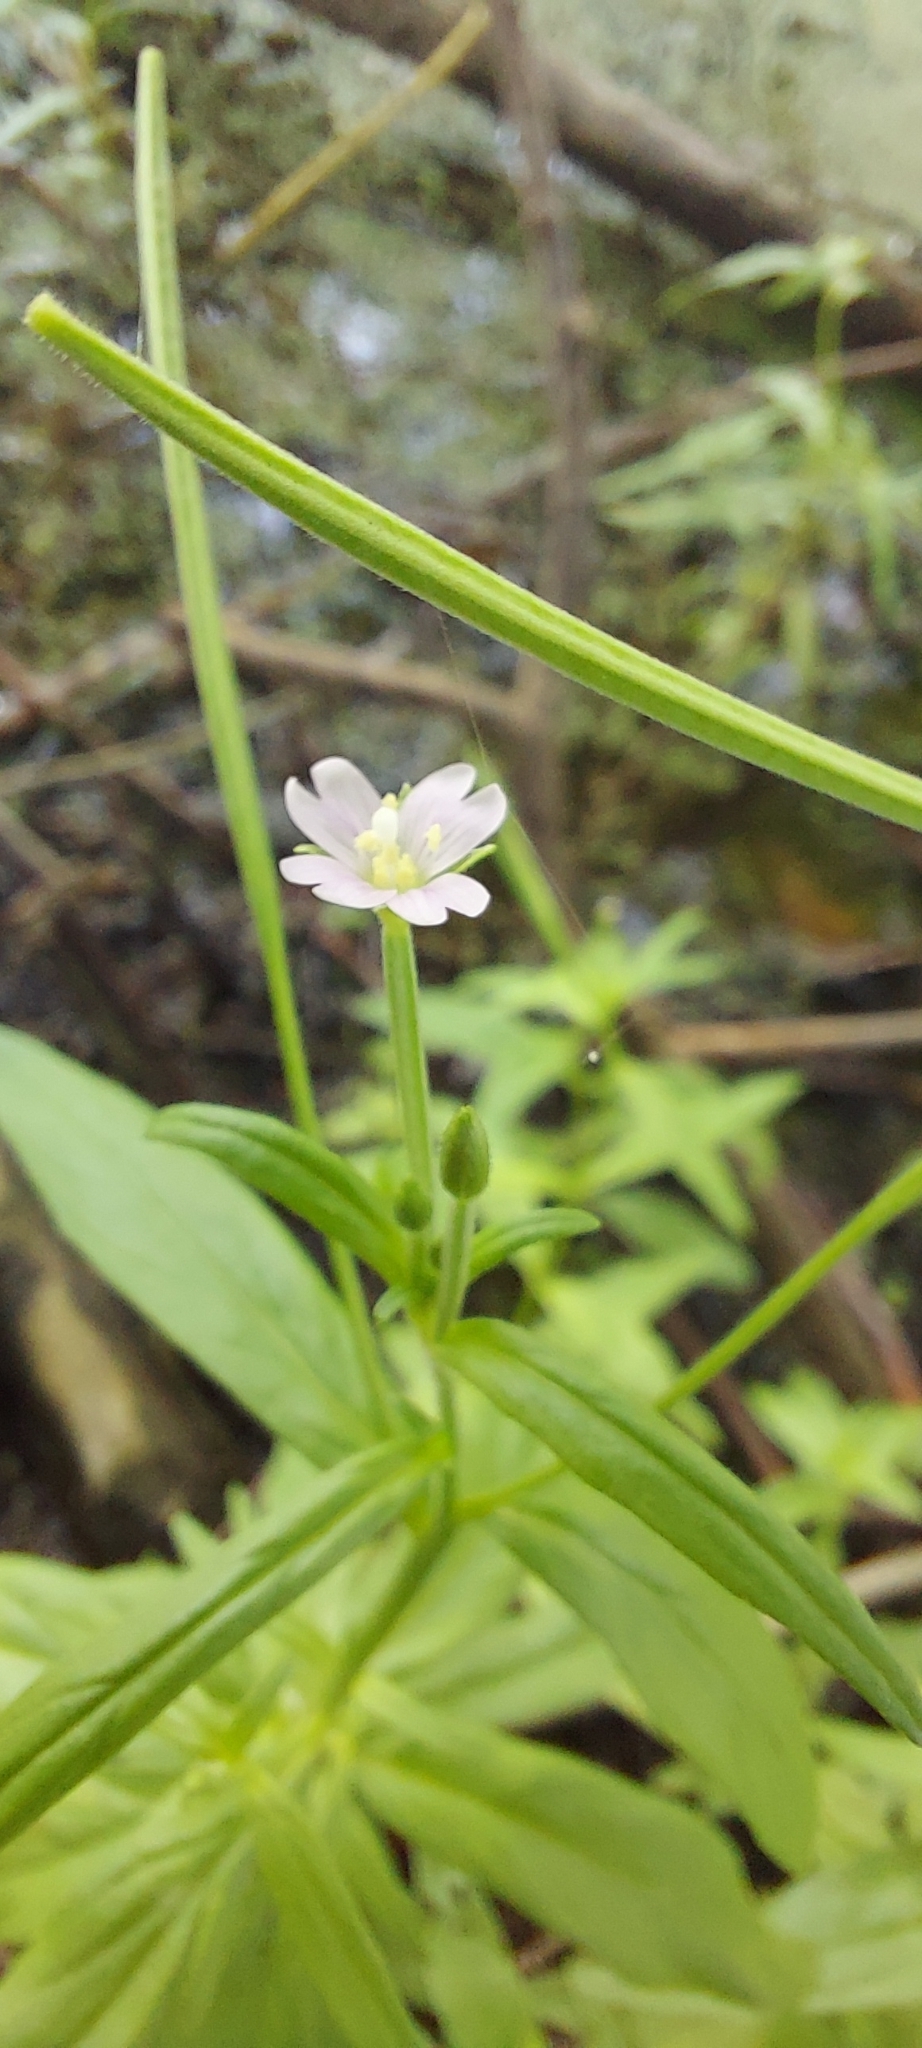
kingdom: Plantae
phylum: Tracheophyta
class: Magnoliopsida
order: Myrtales
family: Onagraceae
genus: Epilobium
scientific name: Epilobium palustre
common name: Marsh willowherb
